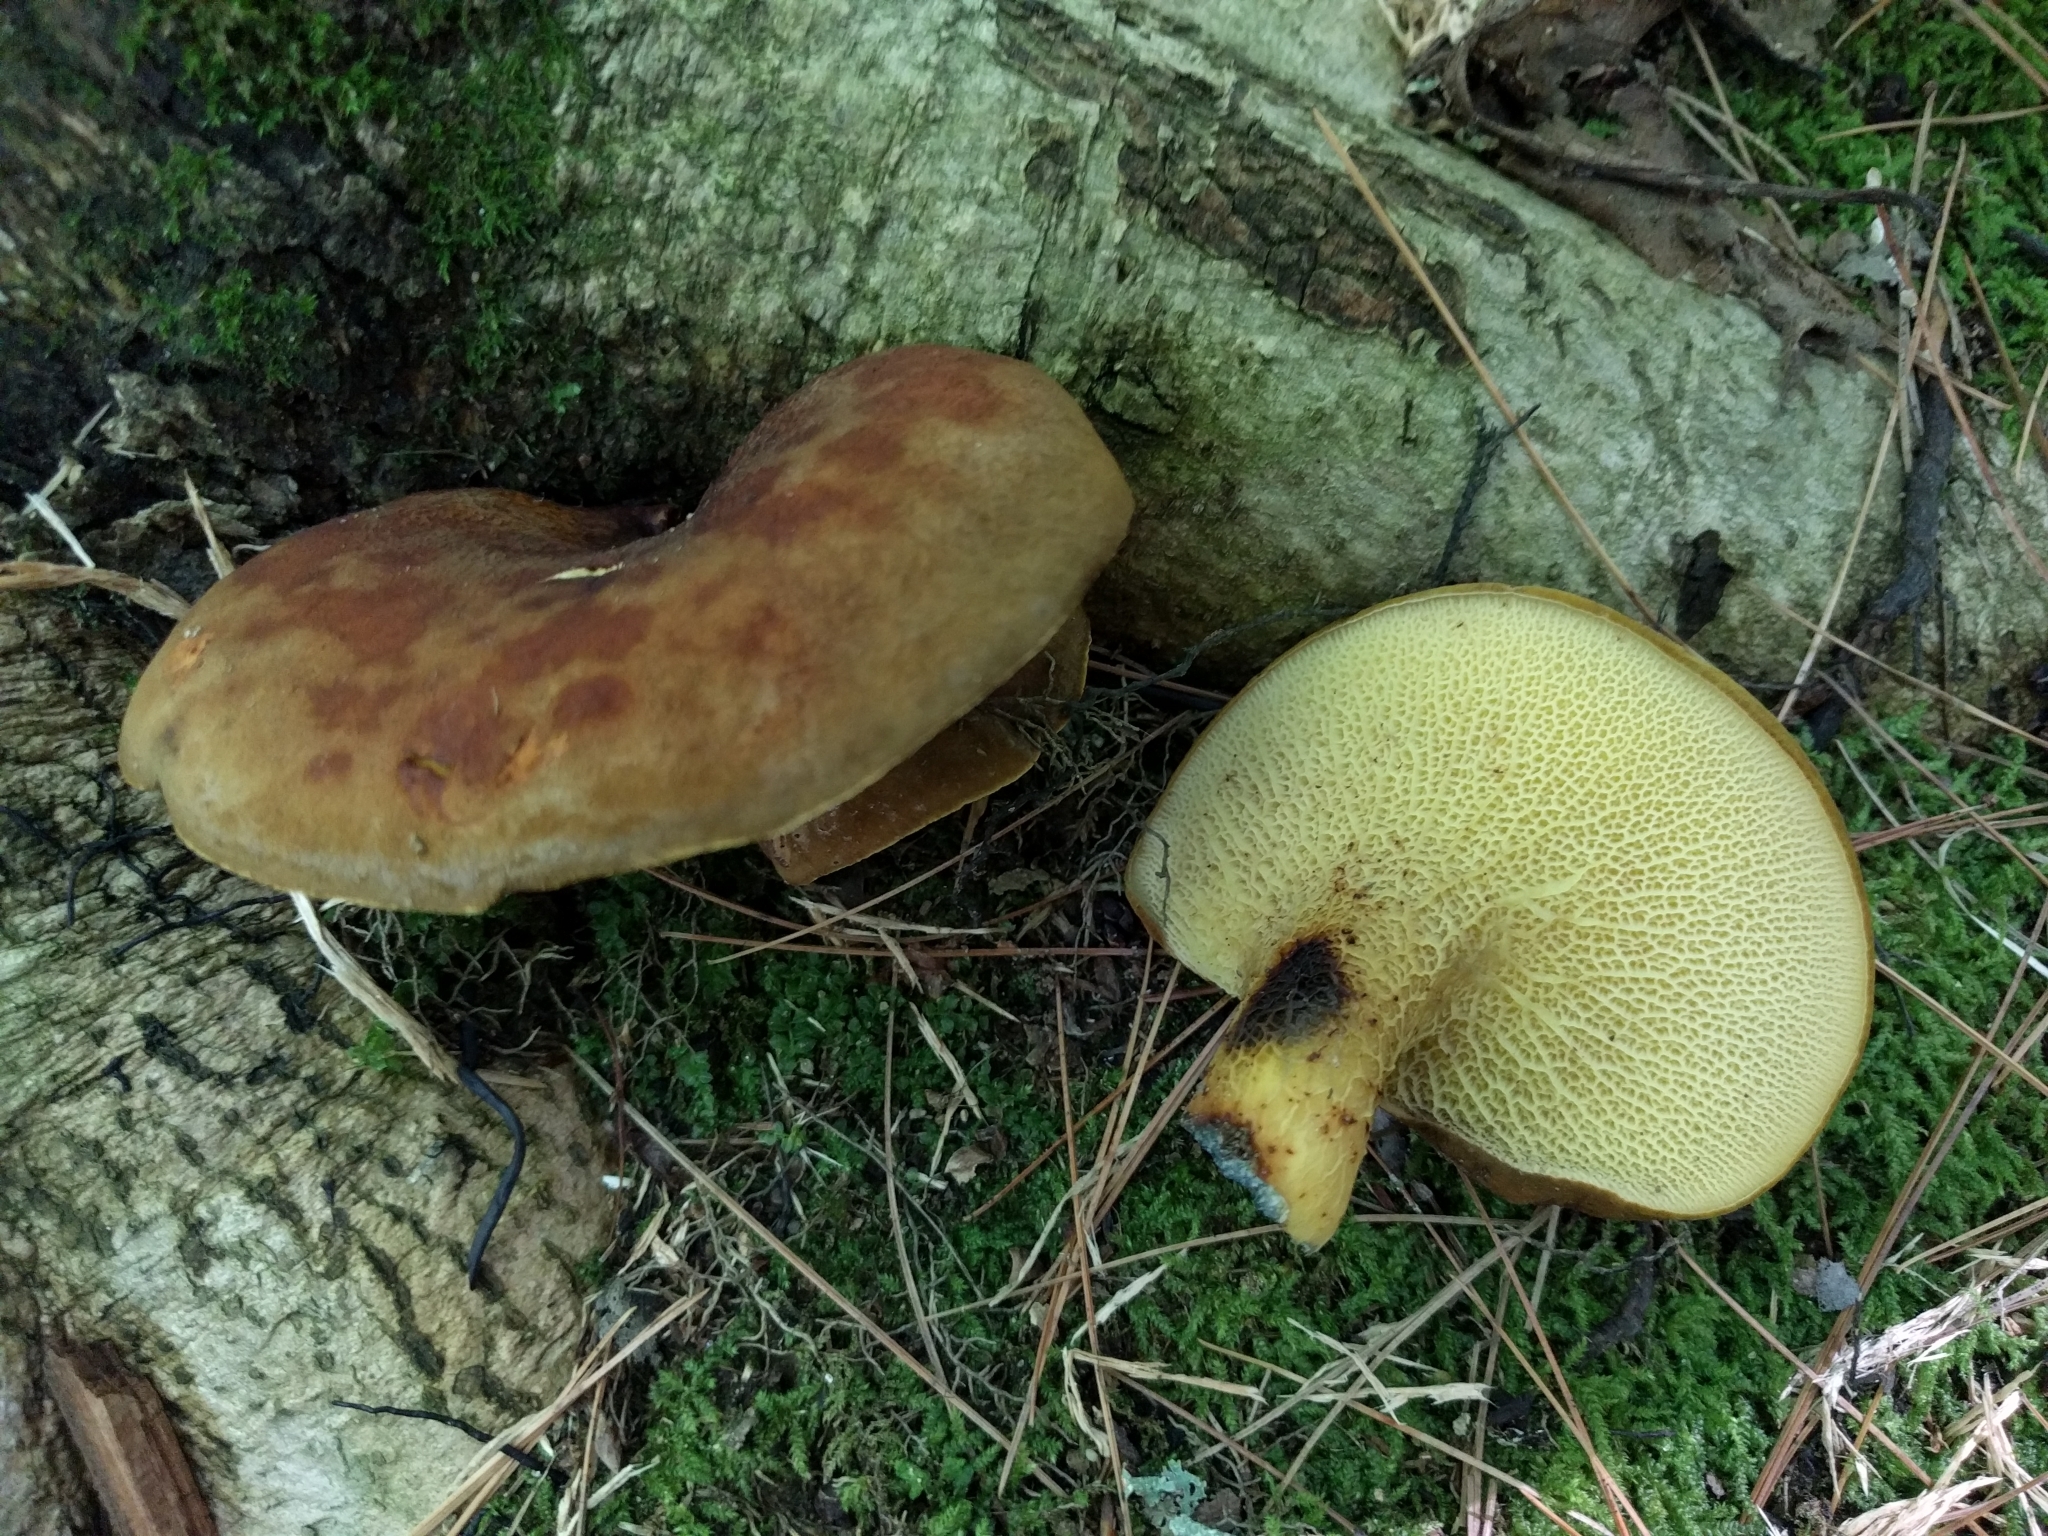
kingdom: Fungi
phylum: Basidiomycota
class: Agaricomycetes
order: Boletales
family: Boletinellaceae
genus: Boletinellus
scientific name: Boletinellus merulioides
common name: Ash tree bolete
